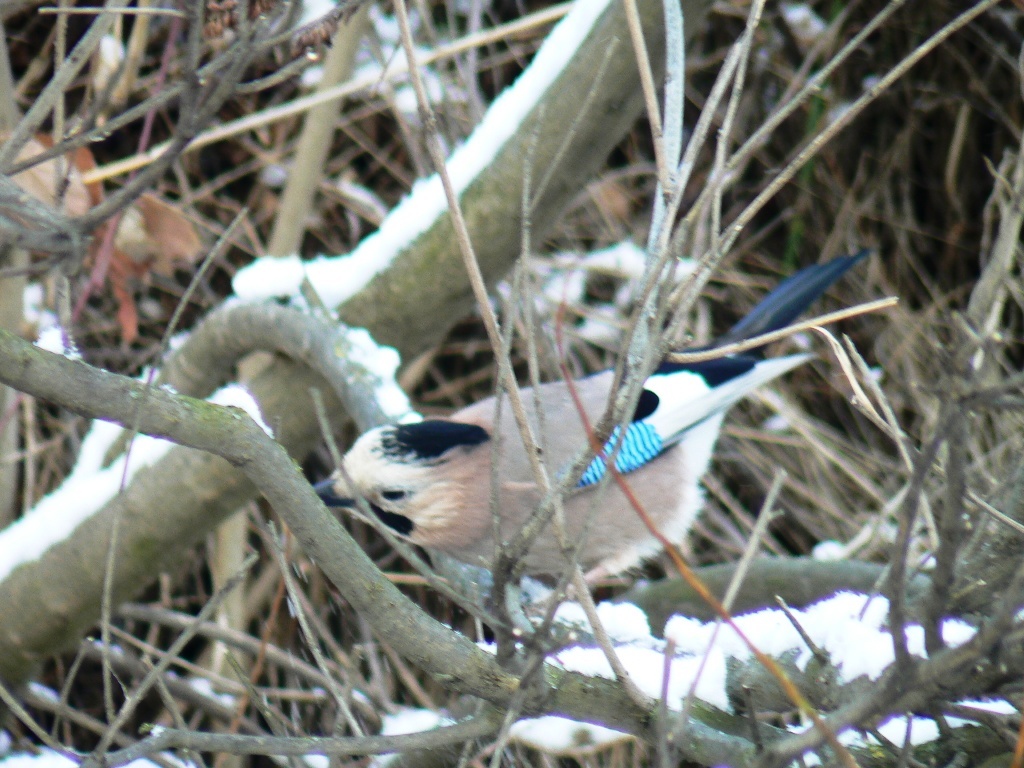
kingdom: Animalia
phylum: Chordata
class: Aves
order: Passeriformes
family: Corvidae
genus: Garrulus
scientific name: Garrulus glandarius
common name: Eurasian jay
